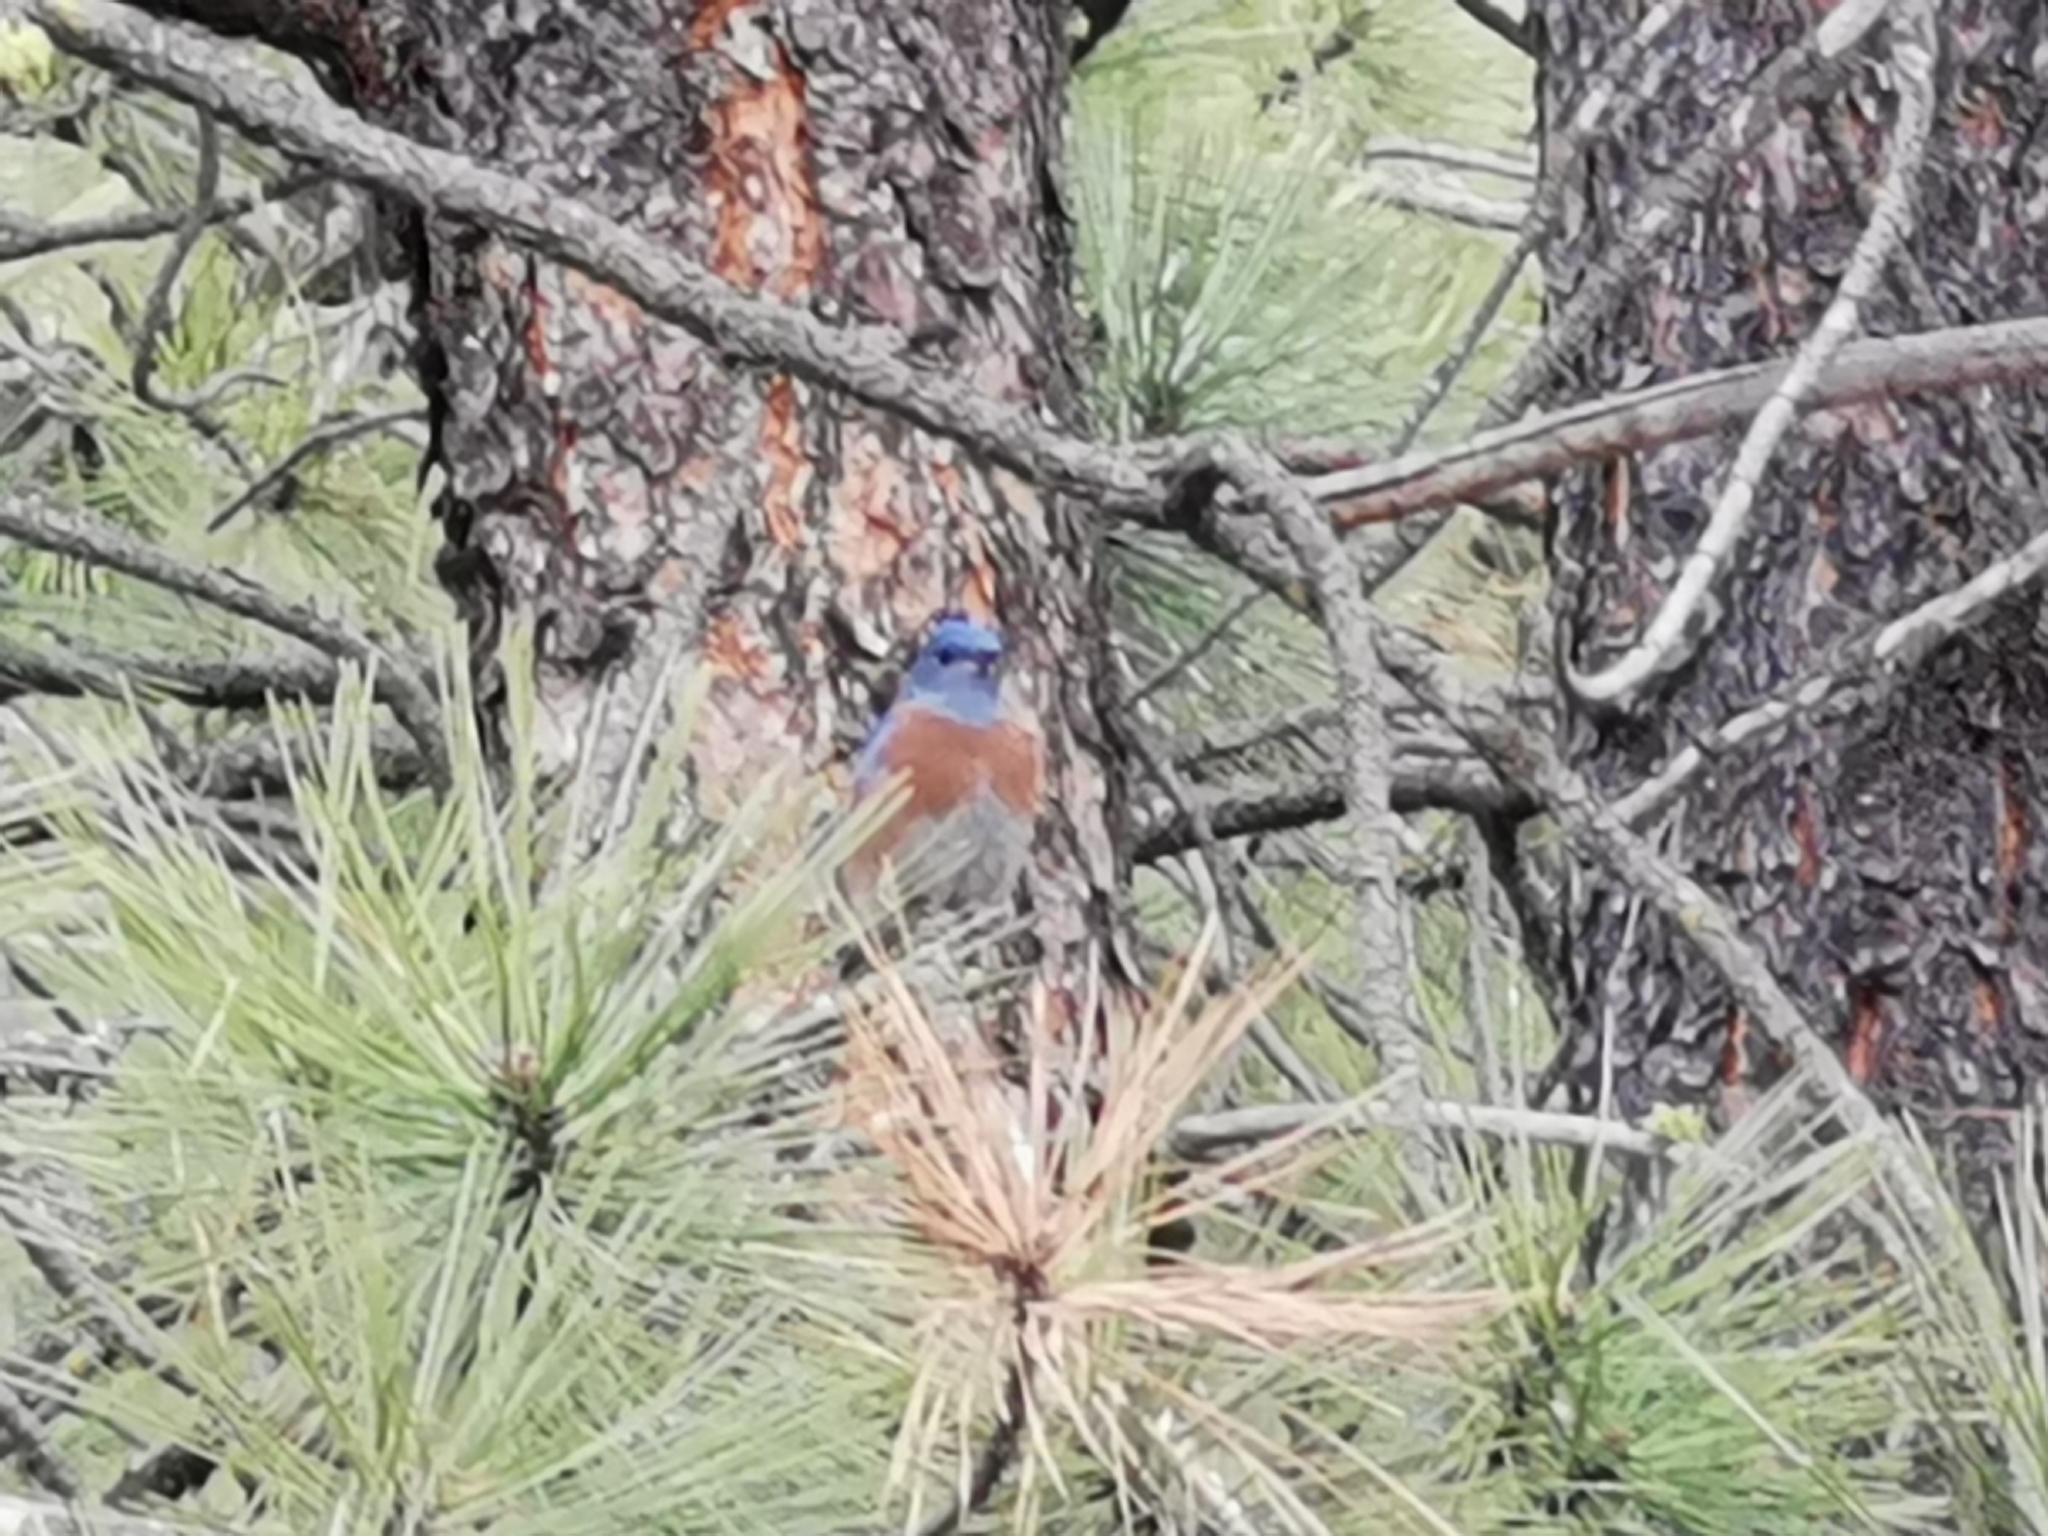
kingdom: Animalia
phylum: Chordata
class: Aves
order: Passeriformes
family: Turdidae
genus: Sialia
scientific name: Sialia mexicana
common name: Western bluebird
